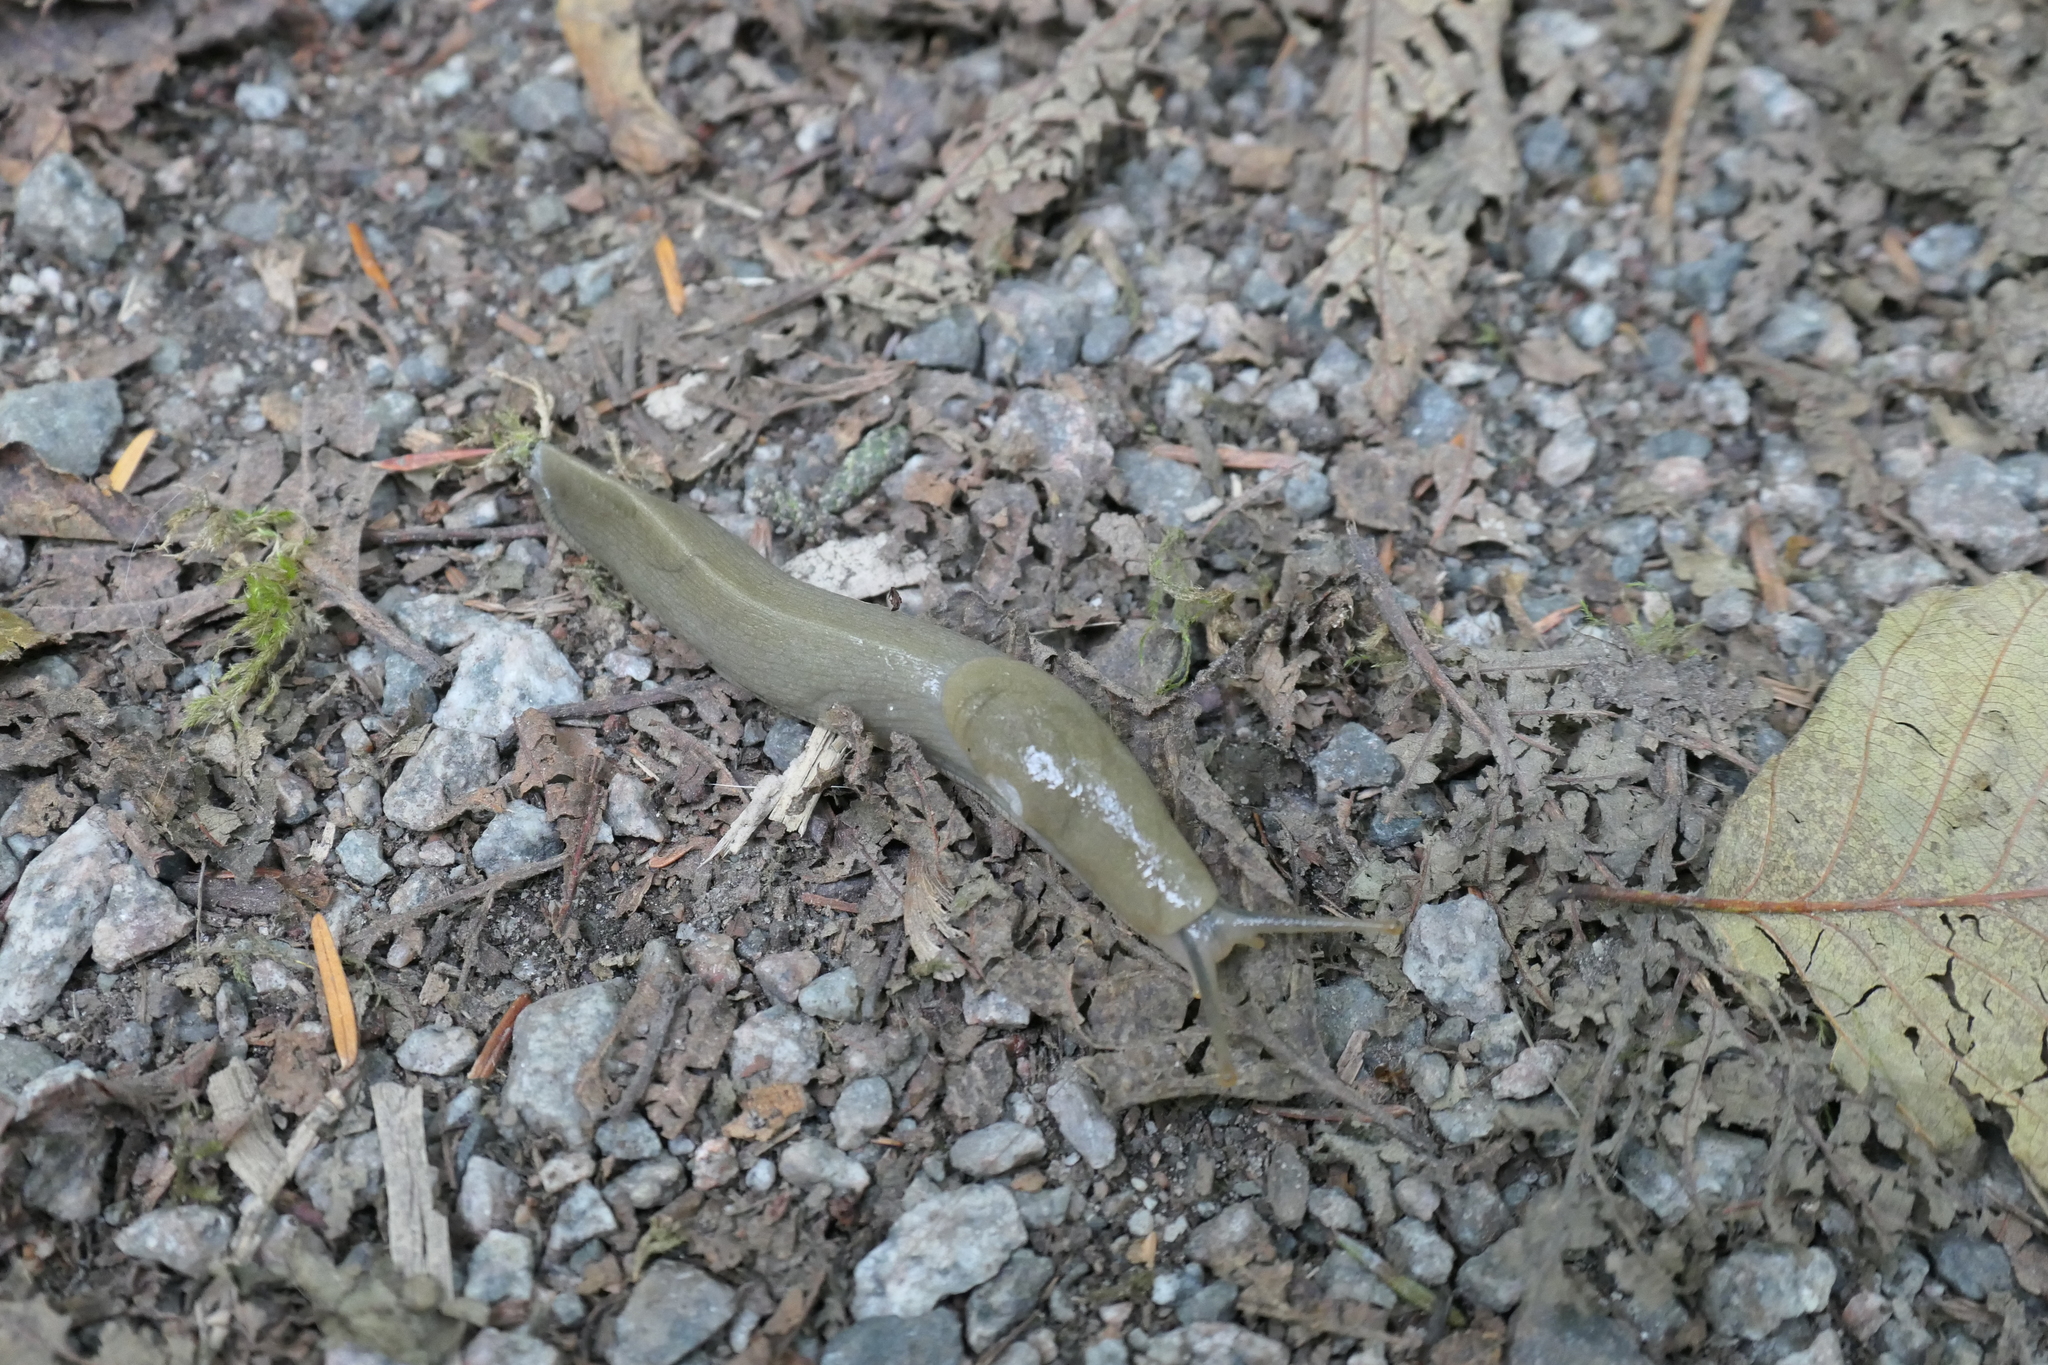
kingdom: Animalia
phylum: Mollusca
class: Gastropoda
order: Stylommatophora
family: Ariolimacidae
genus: Ariolimax
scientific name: Ariolimax columbianus
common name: Pacific banana slug
